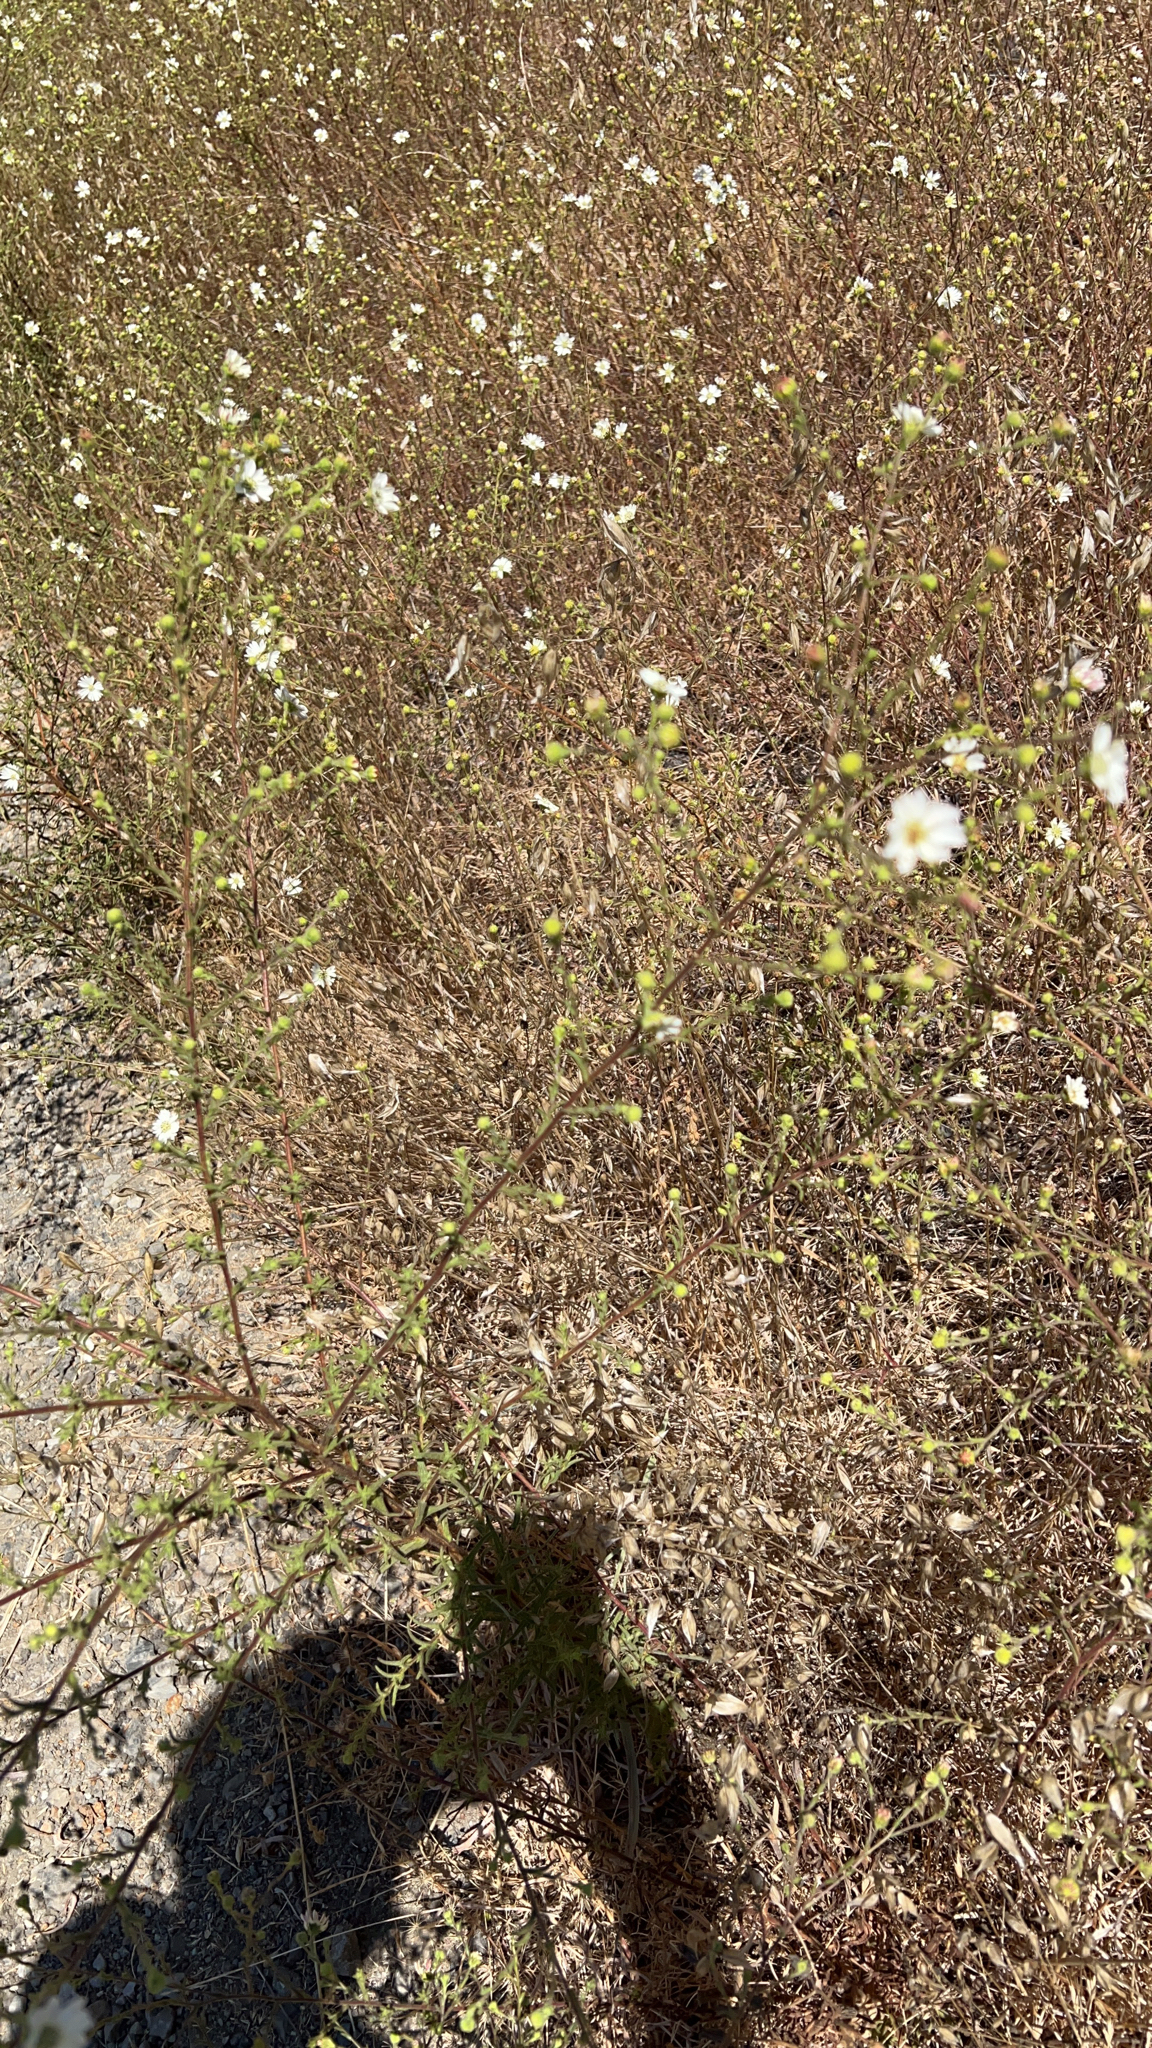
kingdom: Plantae
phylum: Tracheophyta
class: Magnoliopsida
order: Asterales
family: Asteraceae
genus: Hemizonia
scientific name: Hemizonia congesta
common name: Hayfield tarweed
